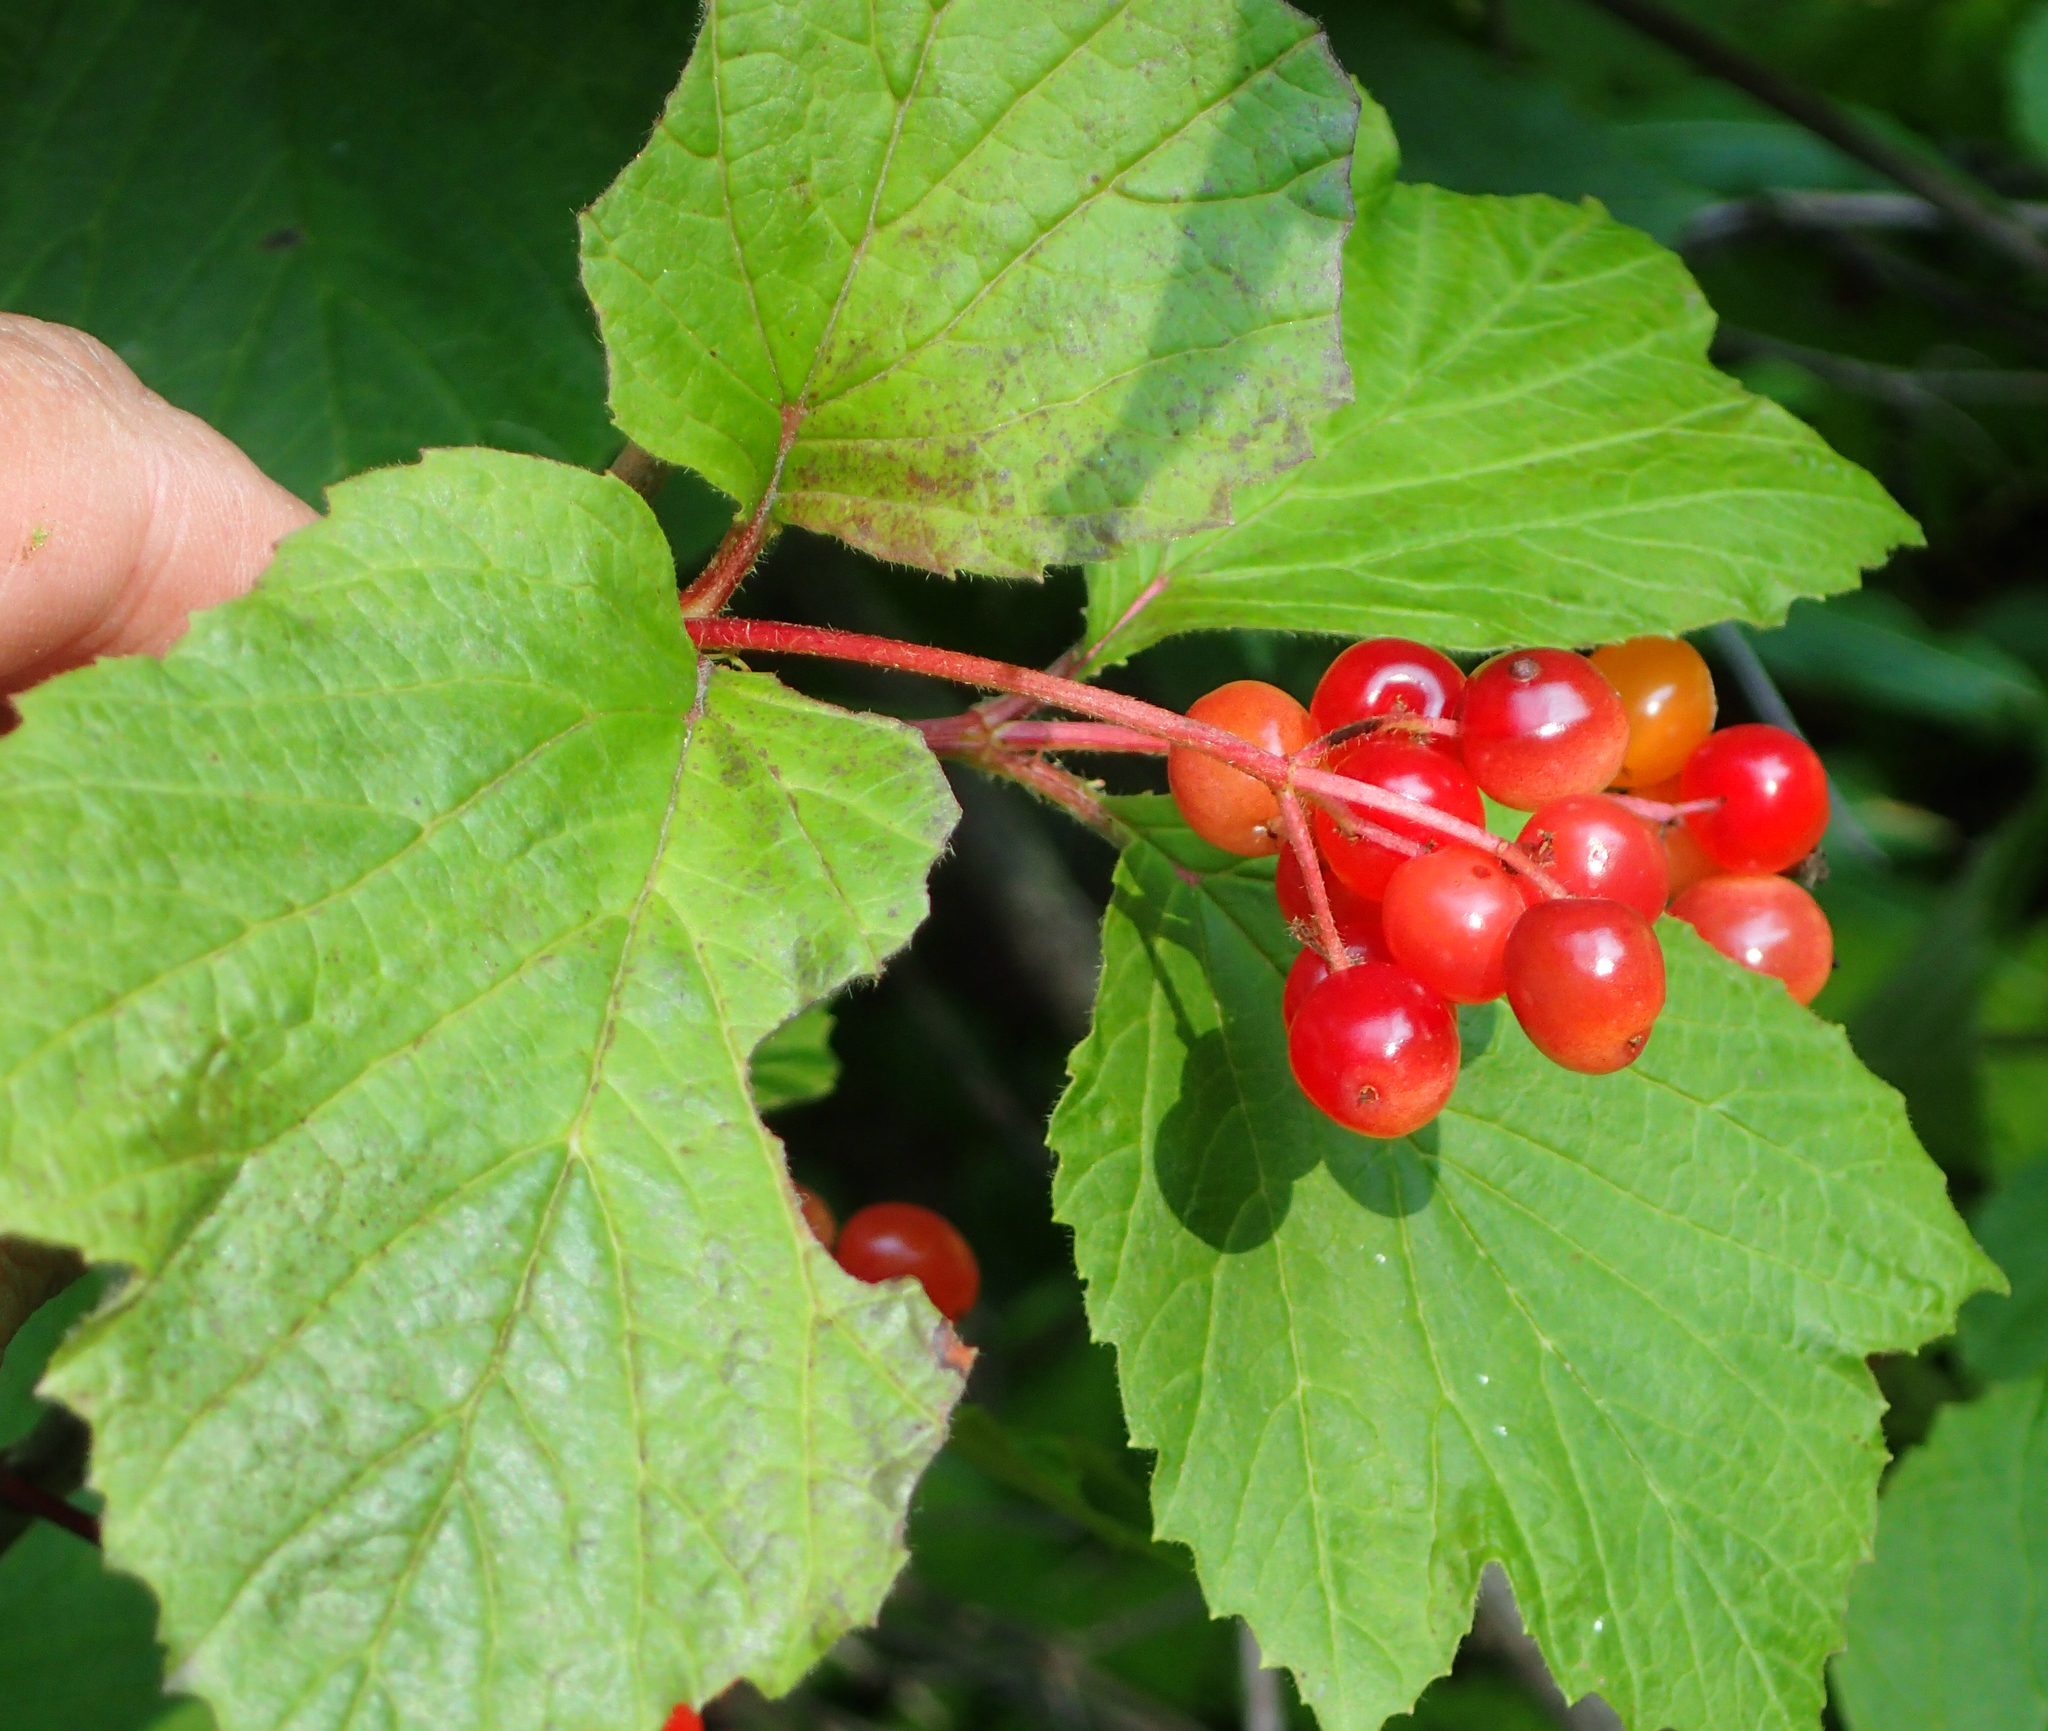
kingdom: Plantae
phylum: Tracheophyta
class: Magnoliopsida
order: Dipsacales
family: Viburnaceae
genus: Viburnum
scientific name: Viburnum edule
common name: Mooseberry
